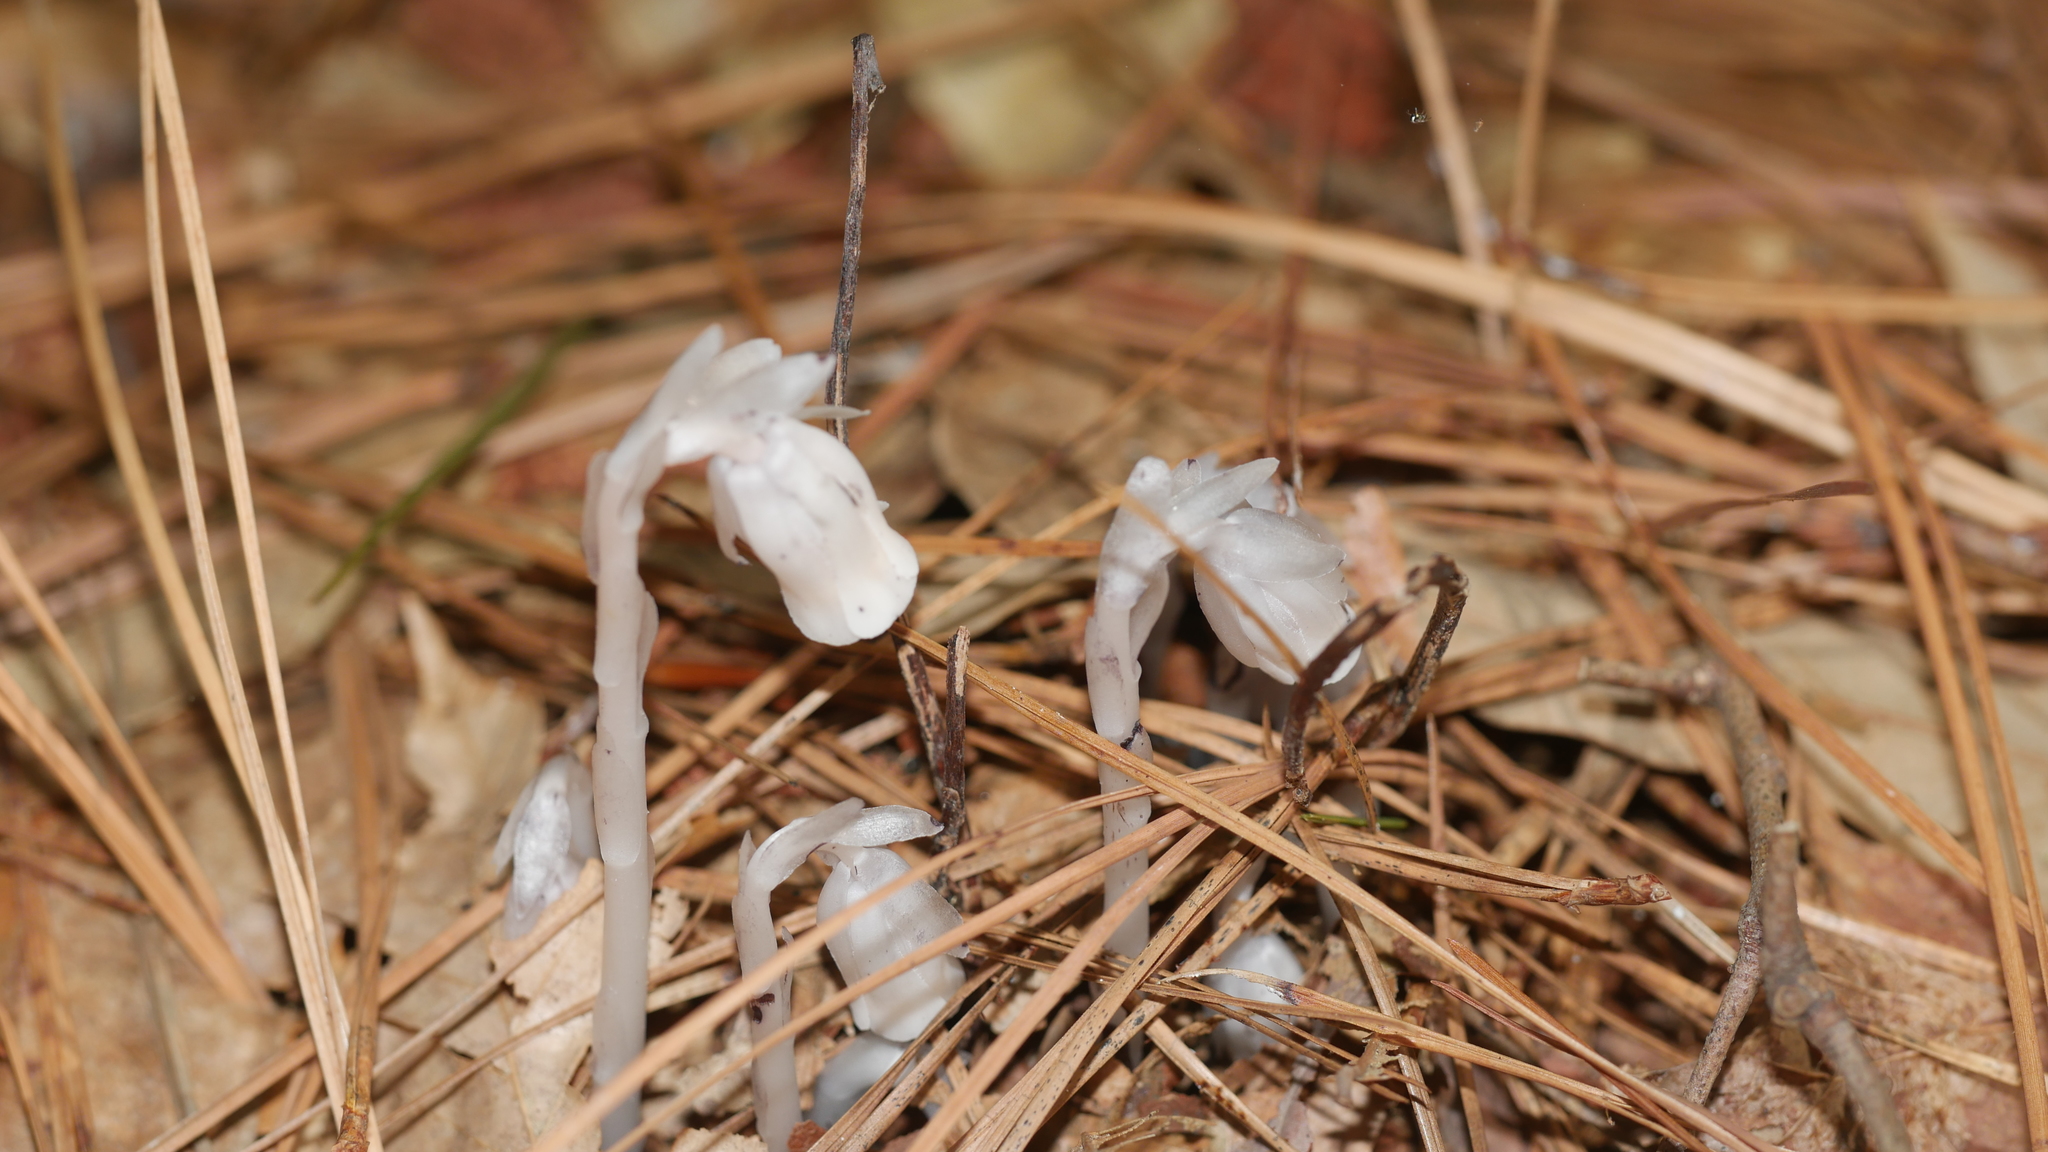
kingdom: Plantae
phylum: Tracheophyta
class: Magnoliopsida
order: Ericales
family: Ericaceae
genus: Monotropa
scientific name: Monotropa uniflora
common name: Convulsion root
